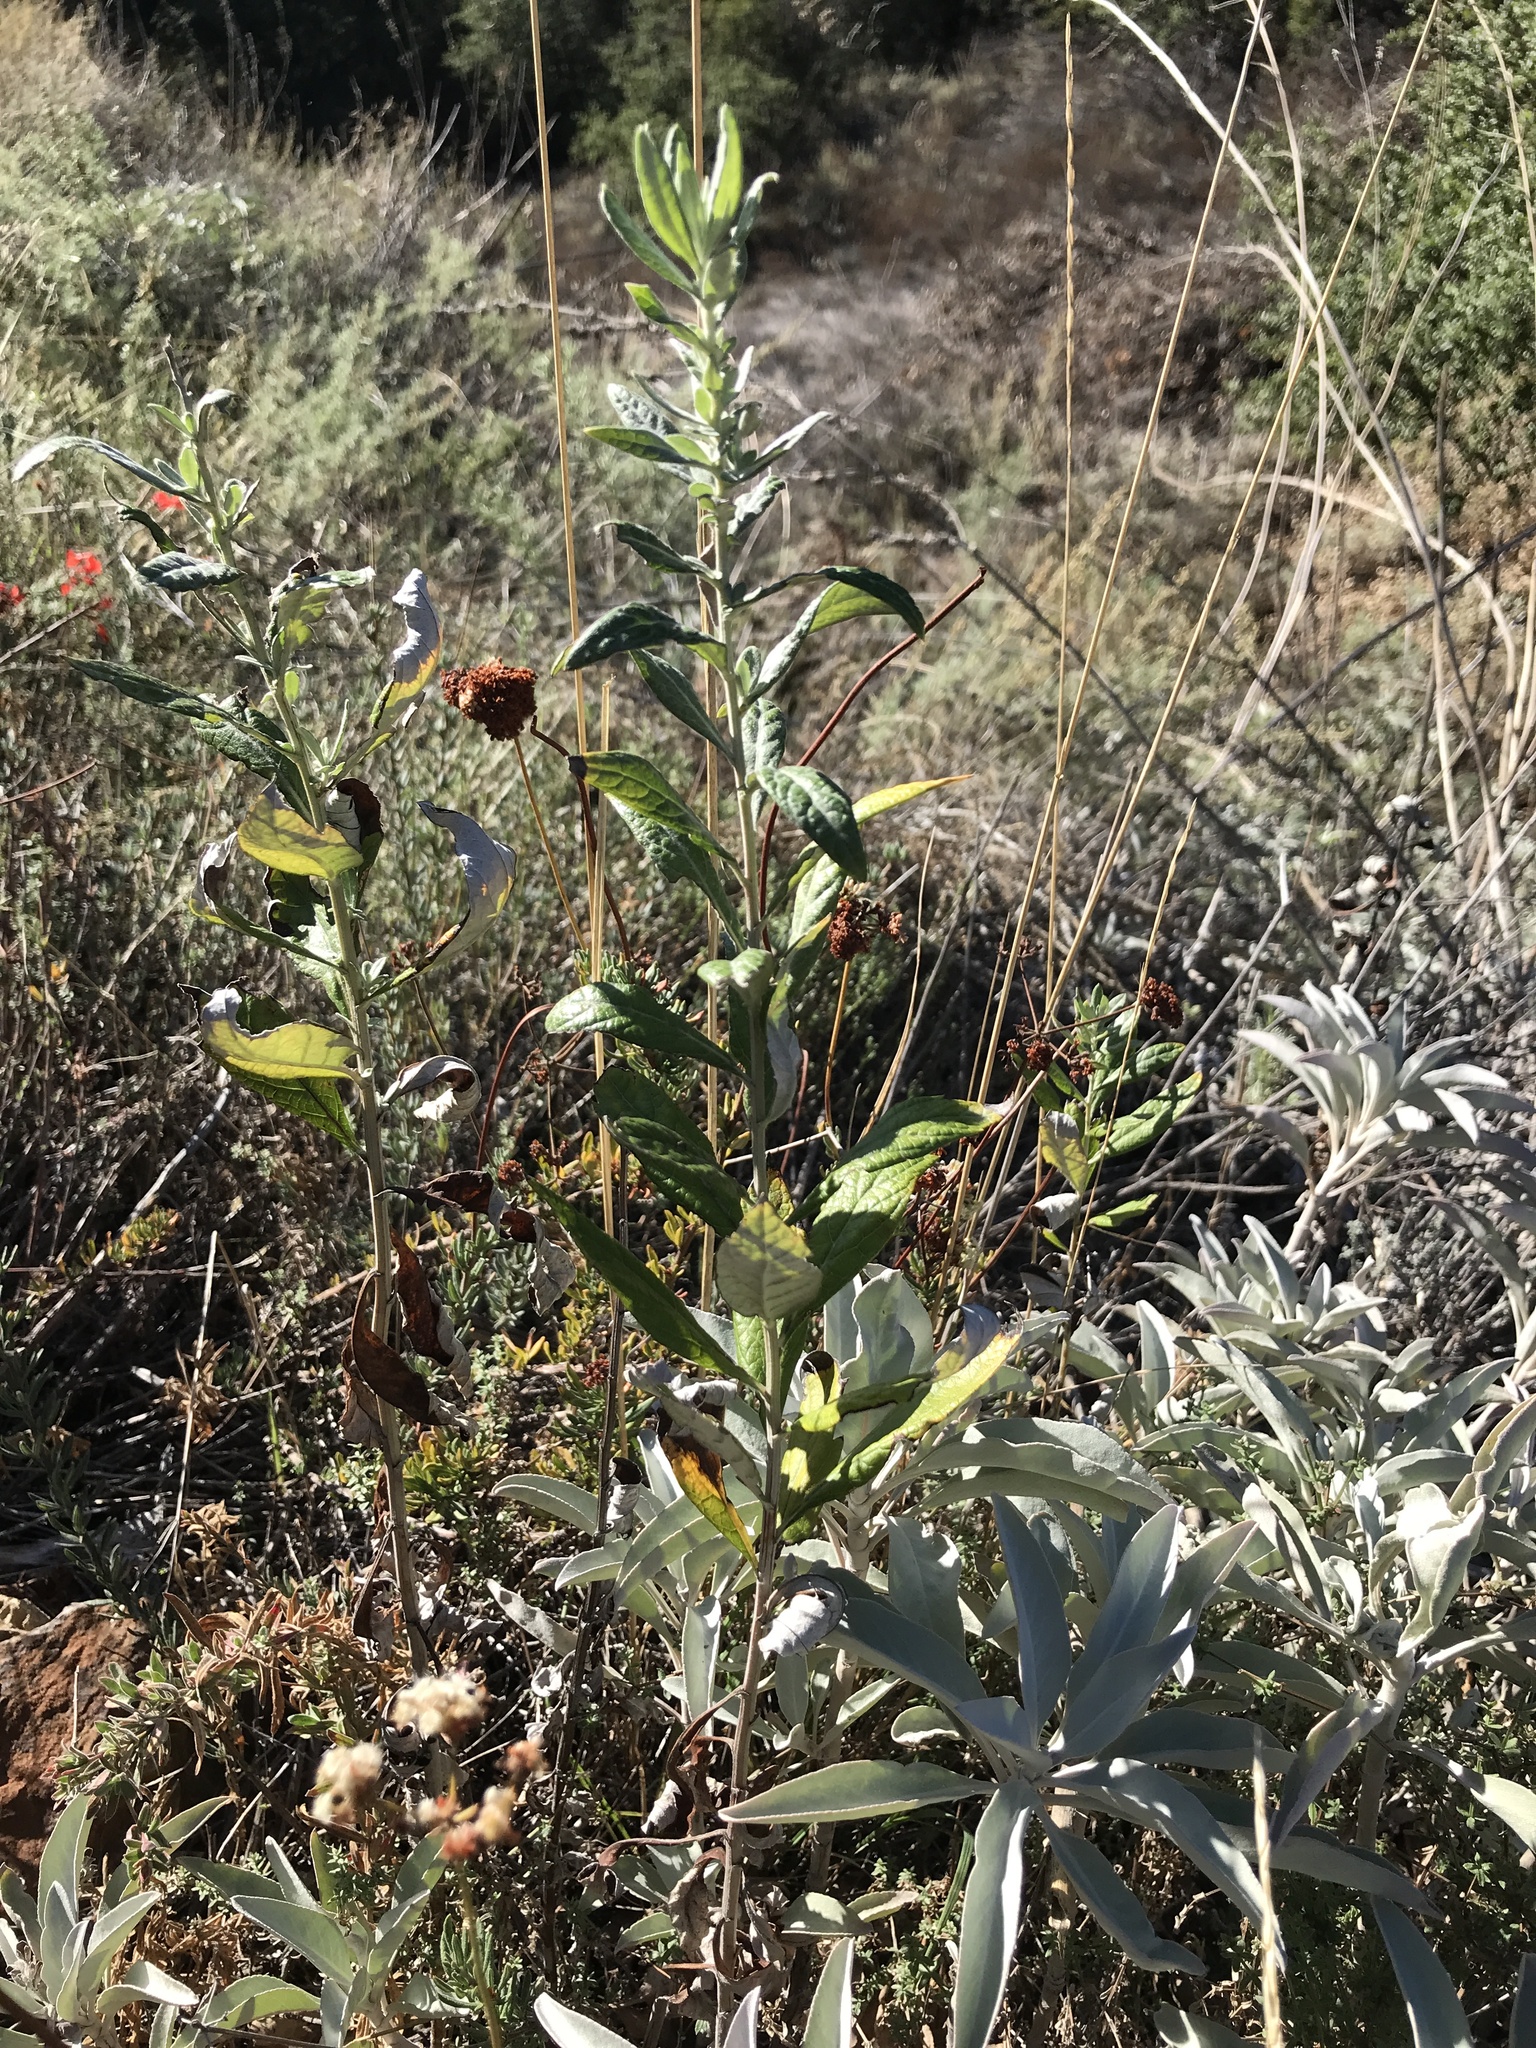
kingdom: Plantae
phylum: Tracheophyta
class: Magnoliopsida
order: Asterales
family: Asteraceae
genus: Artemisia
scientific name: Artemisia douglasiana
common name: Northwest mugwort
